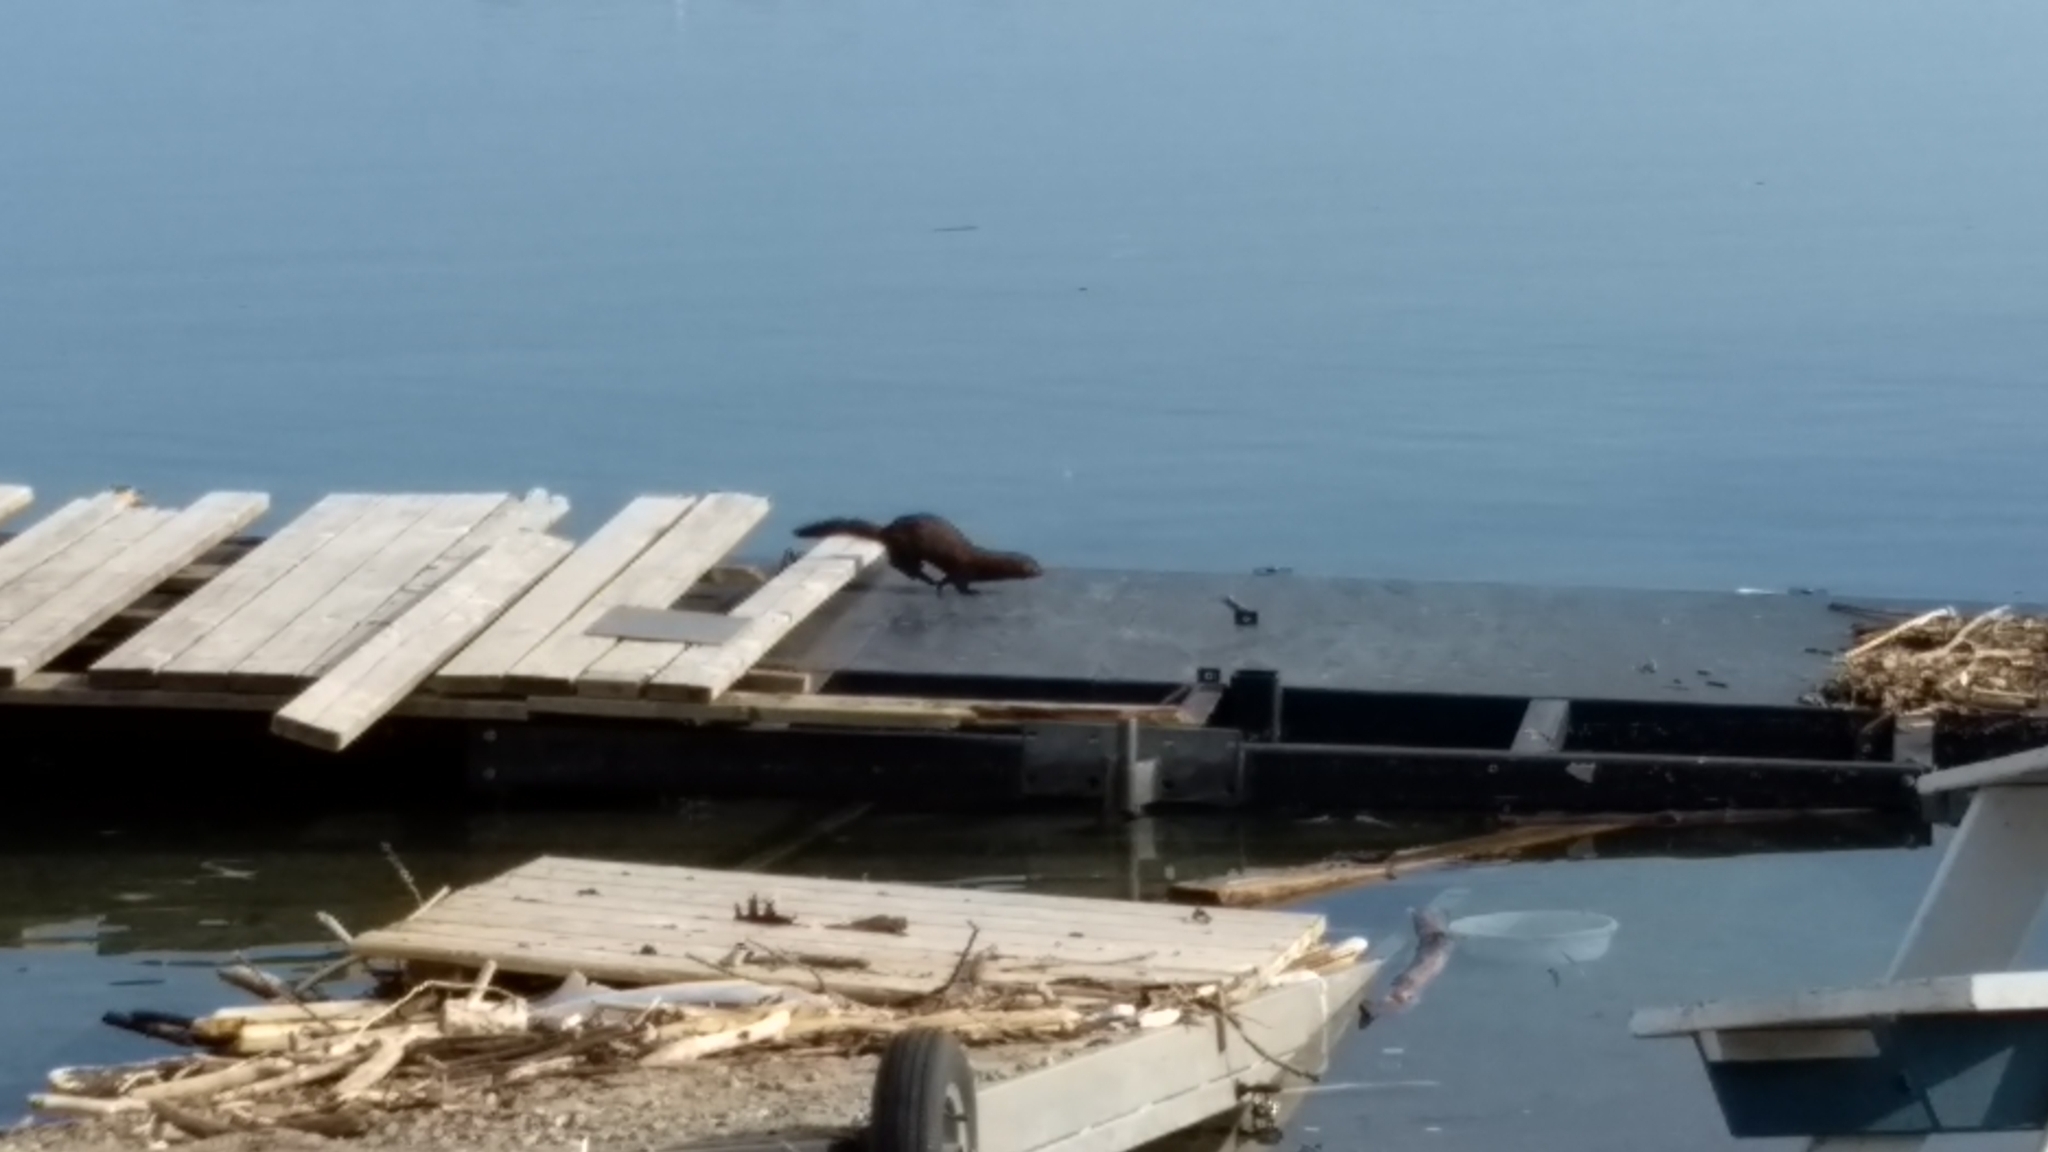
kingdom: Animalia
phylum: Chordata
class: Mammalia
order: Carnivora
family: Mustelidae
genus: Mustela
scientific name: Mustela
